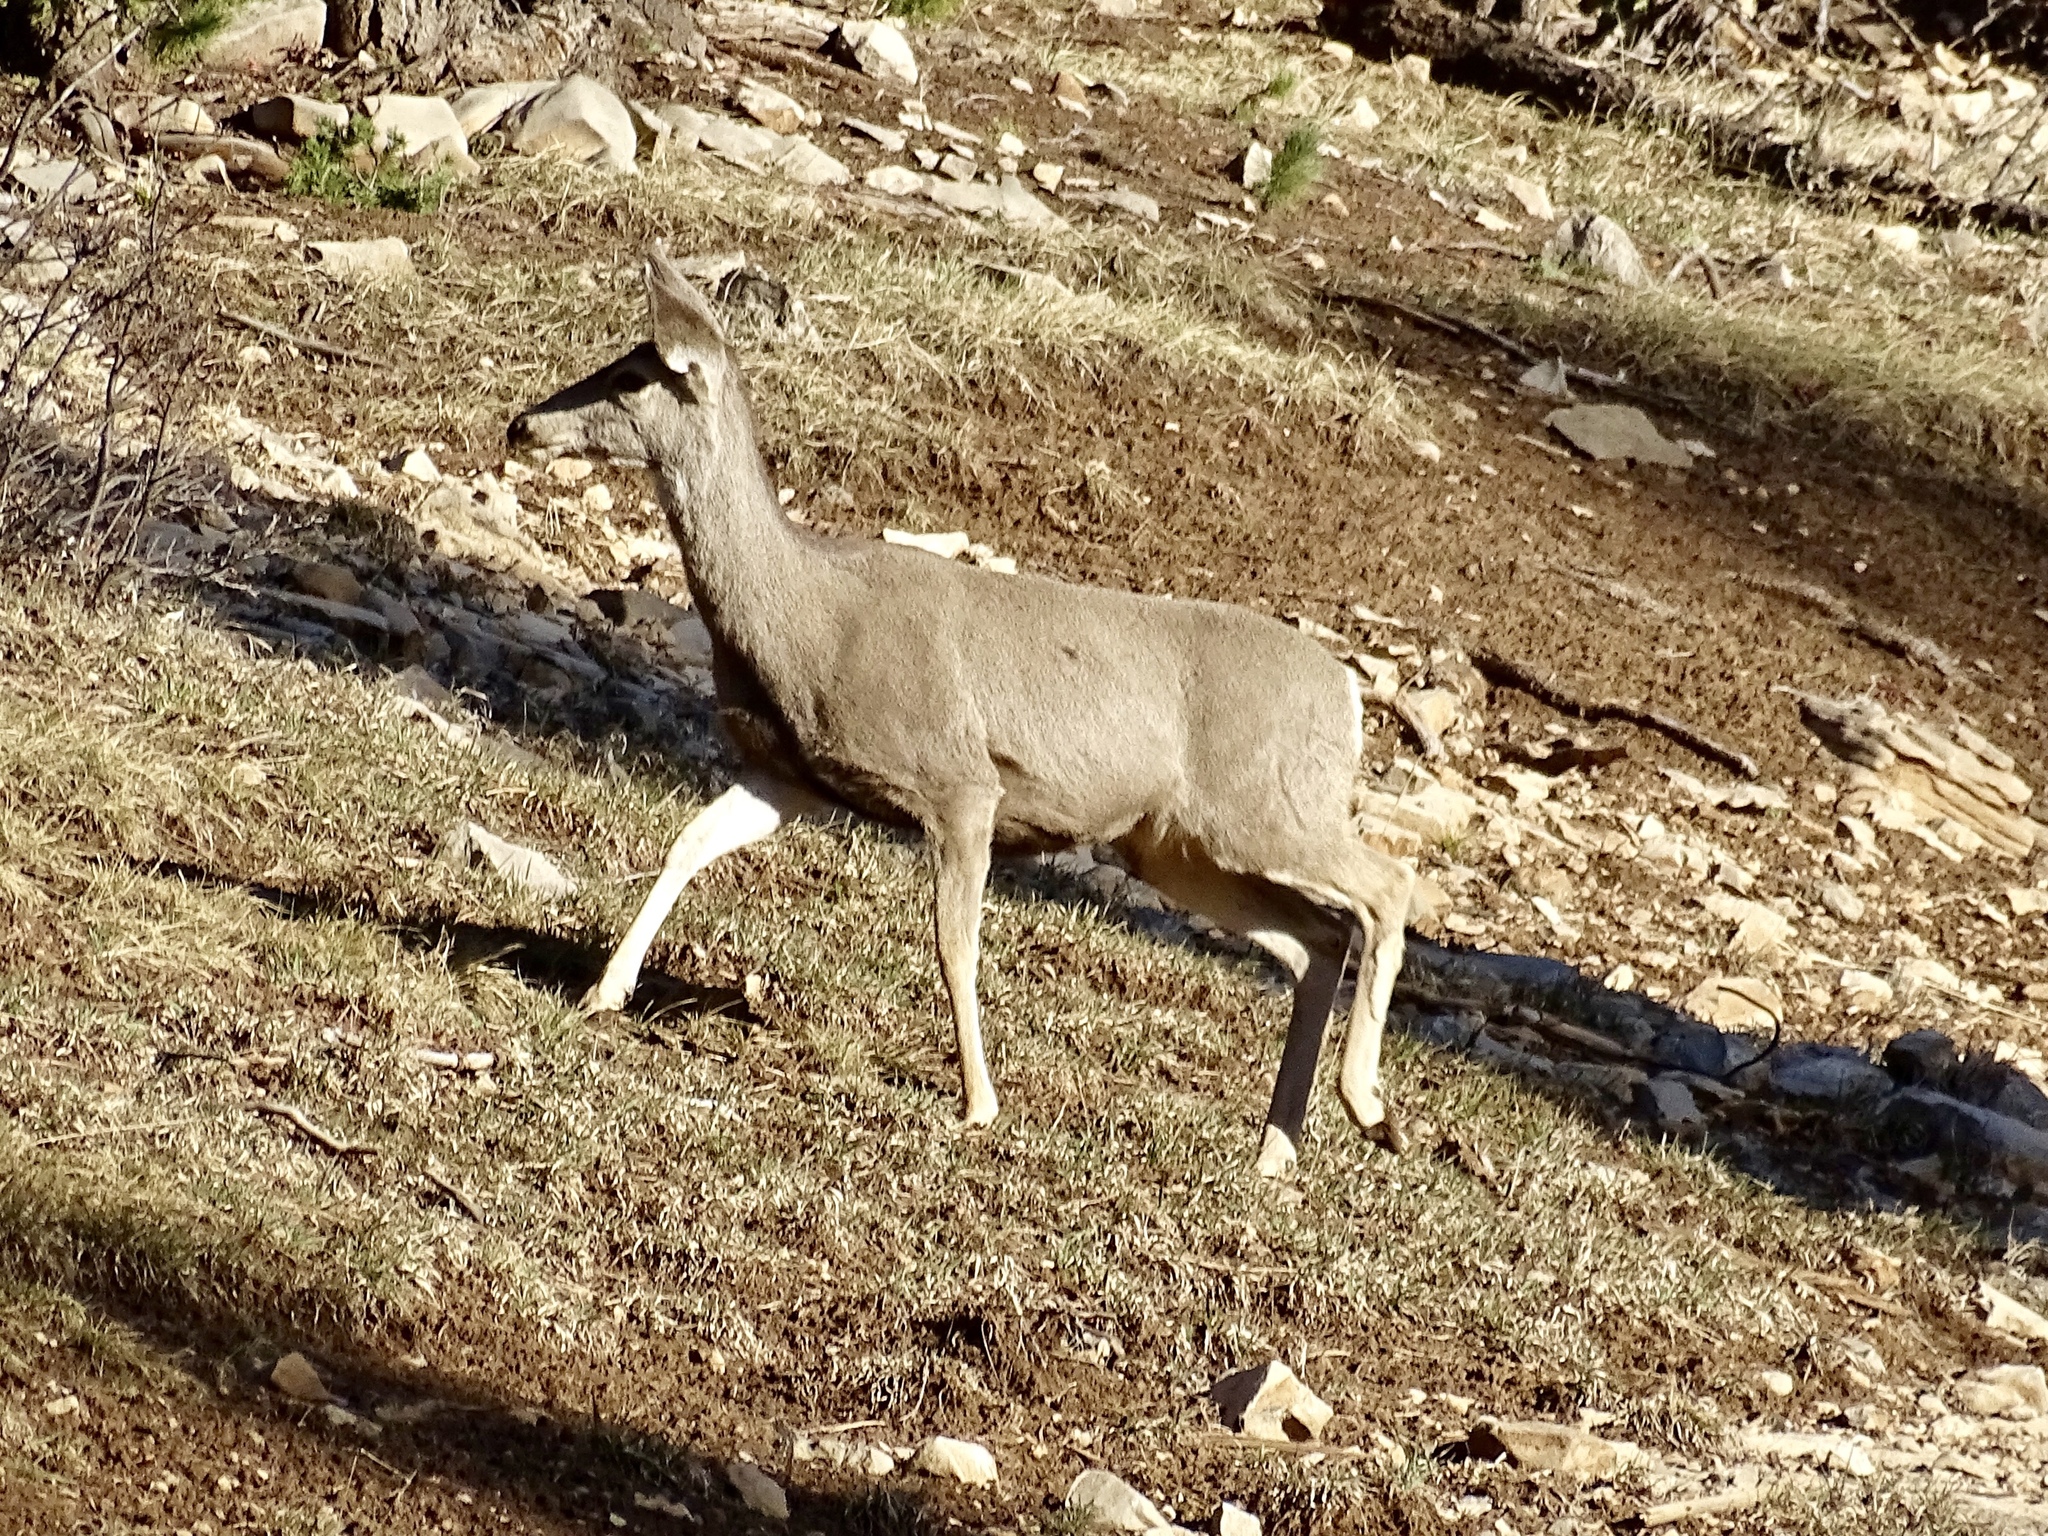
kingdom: Animalia
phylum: Chordata
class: Mammalia
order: Artiodactyla
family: Cervidae
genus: Odocoileus
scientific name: Odocoileus hemionus
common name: Mule deer
